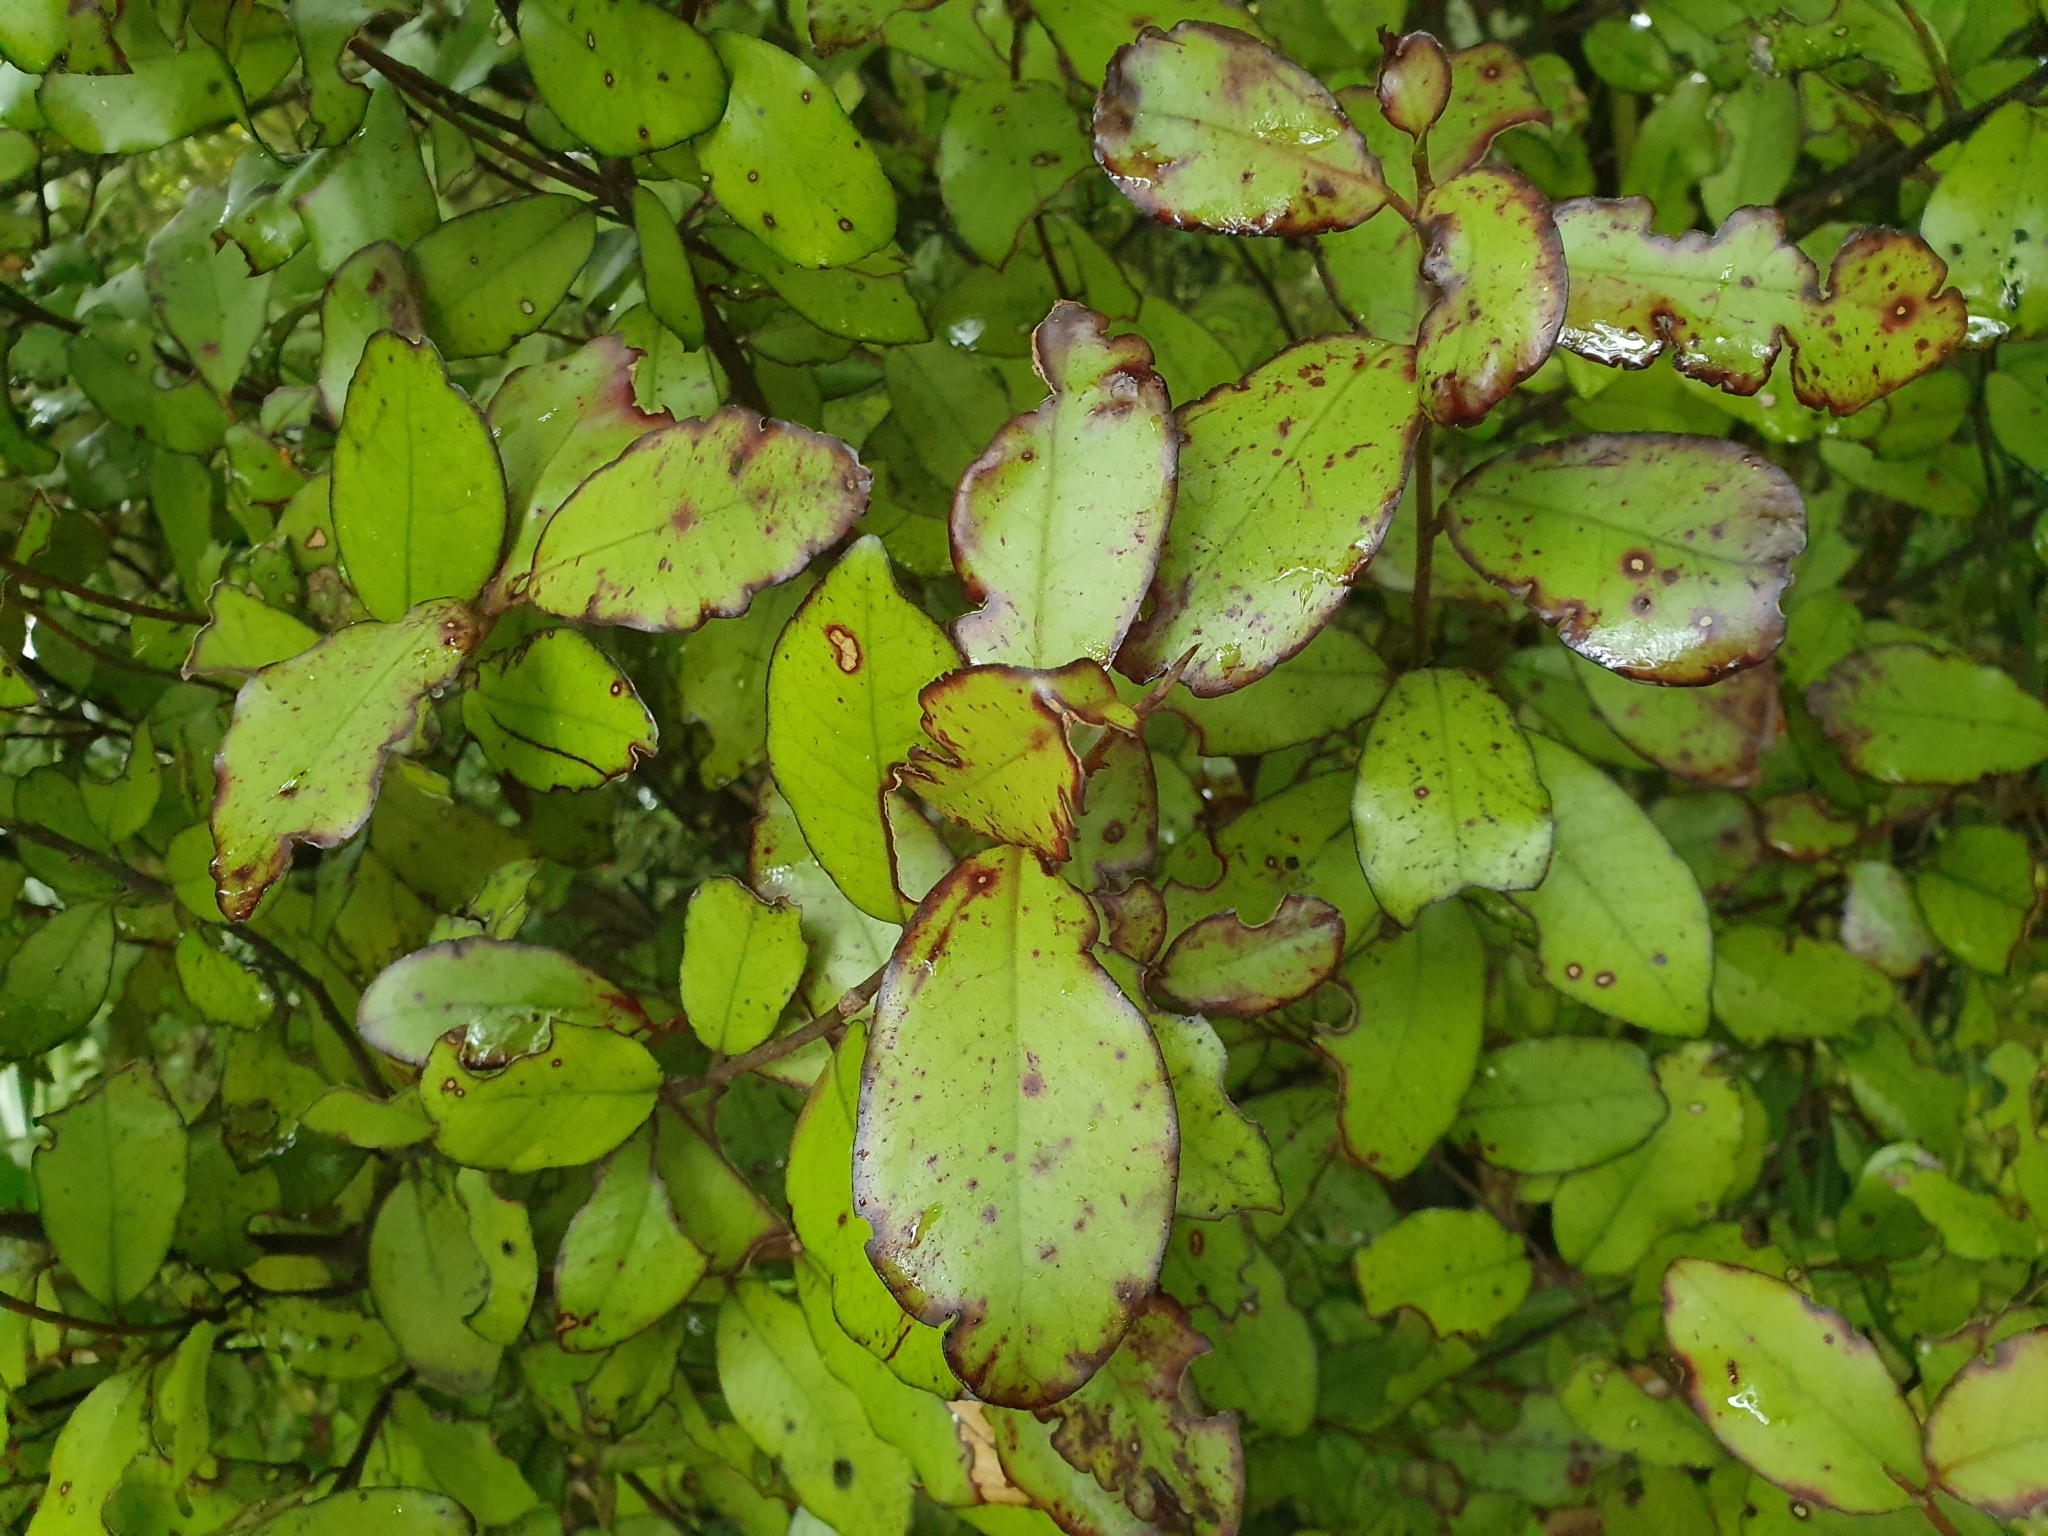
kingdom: Plantae
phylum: Tracheophyta
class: Magnoliopsida
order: Canellales
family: Winteraceae
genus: Pseudowintera
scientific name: Pseudowintera colorata
